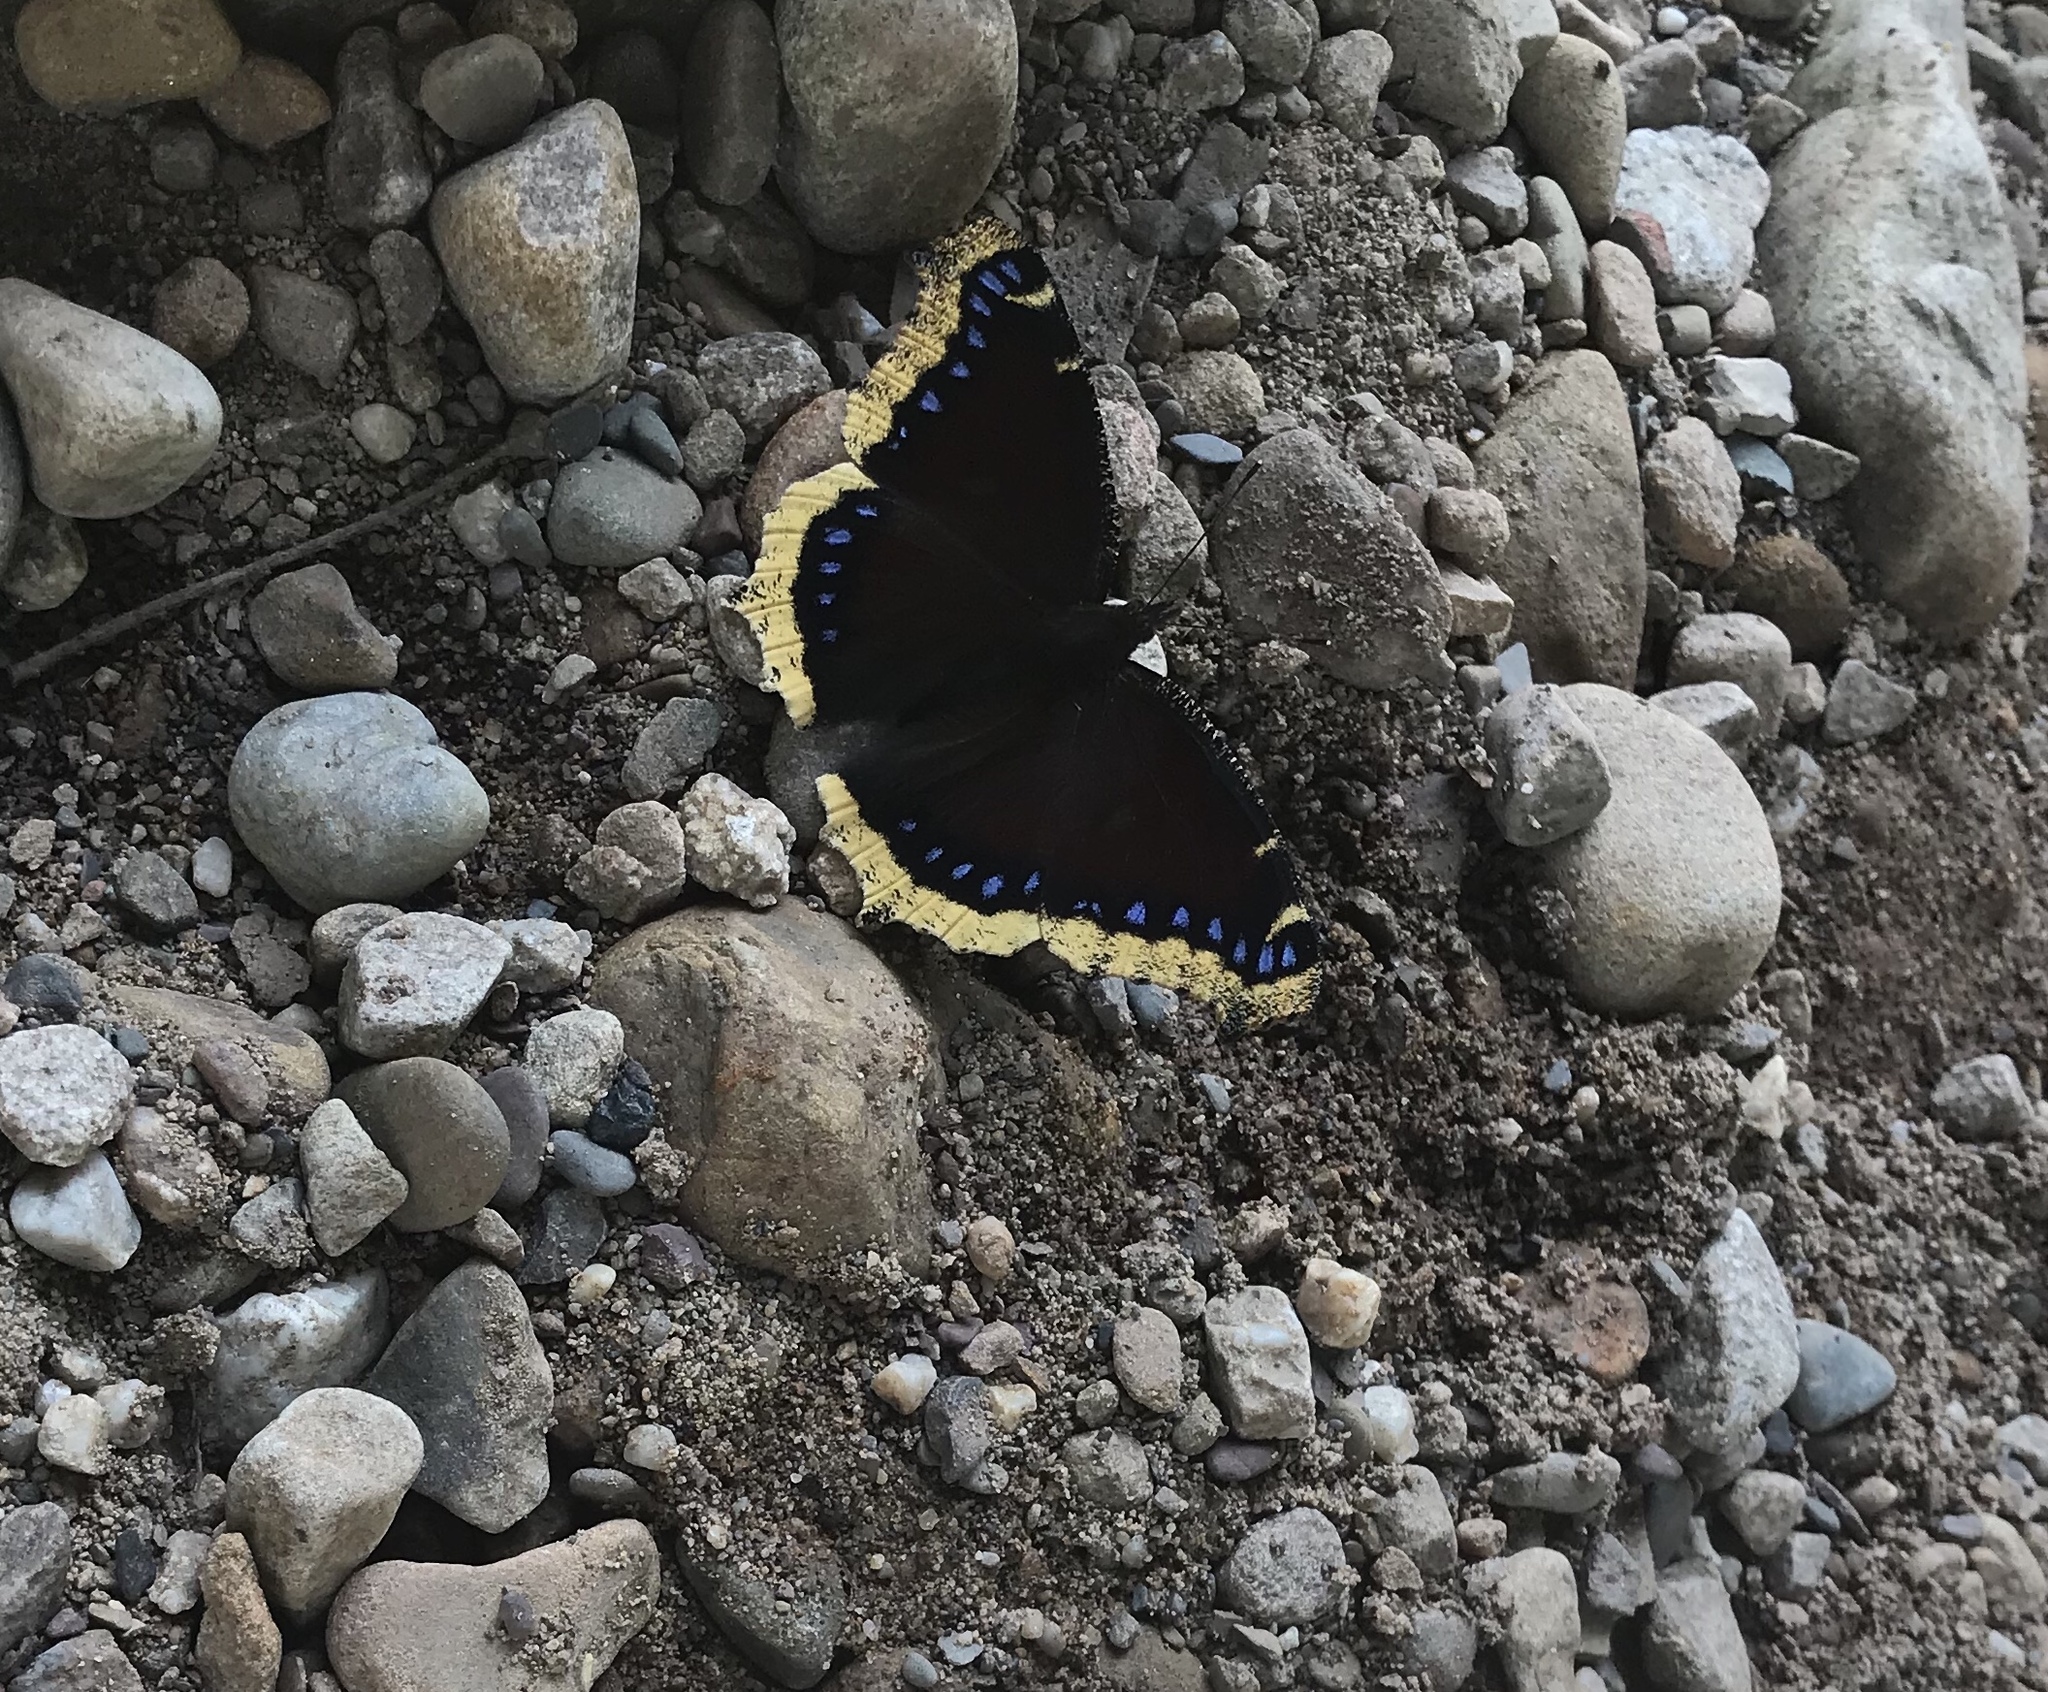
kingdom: Animalia
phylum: Arthropoda
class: Insecta
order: Lepidoptera
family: Nymphalidae
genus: Nymphalis
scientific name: Nymphalis antiopa
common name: Camberwell beauty
